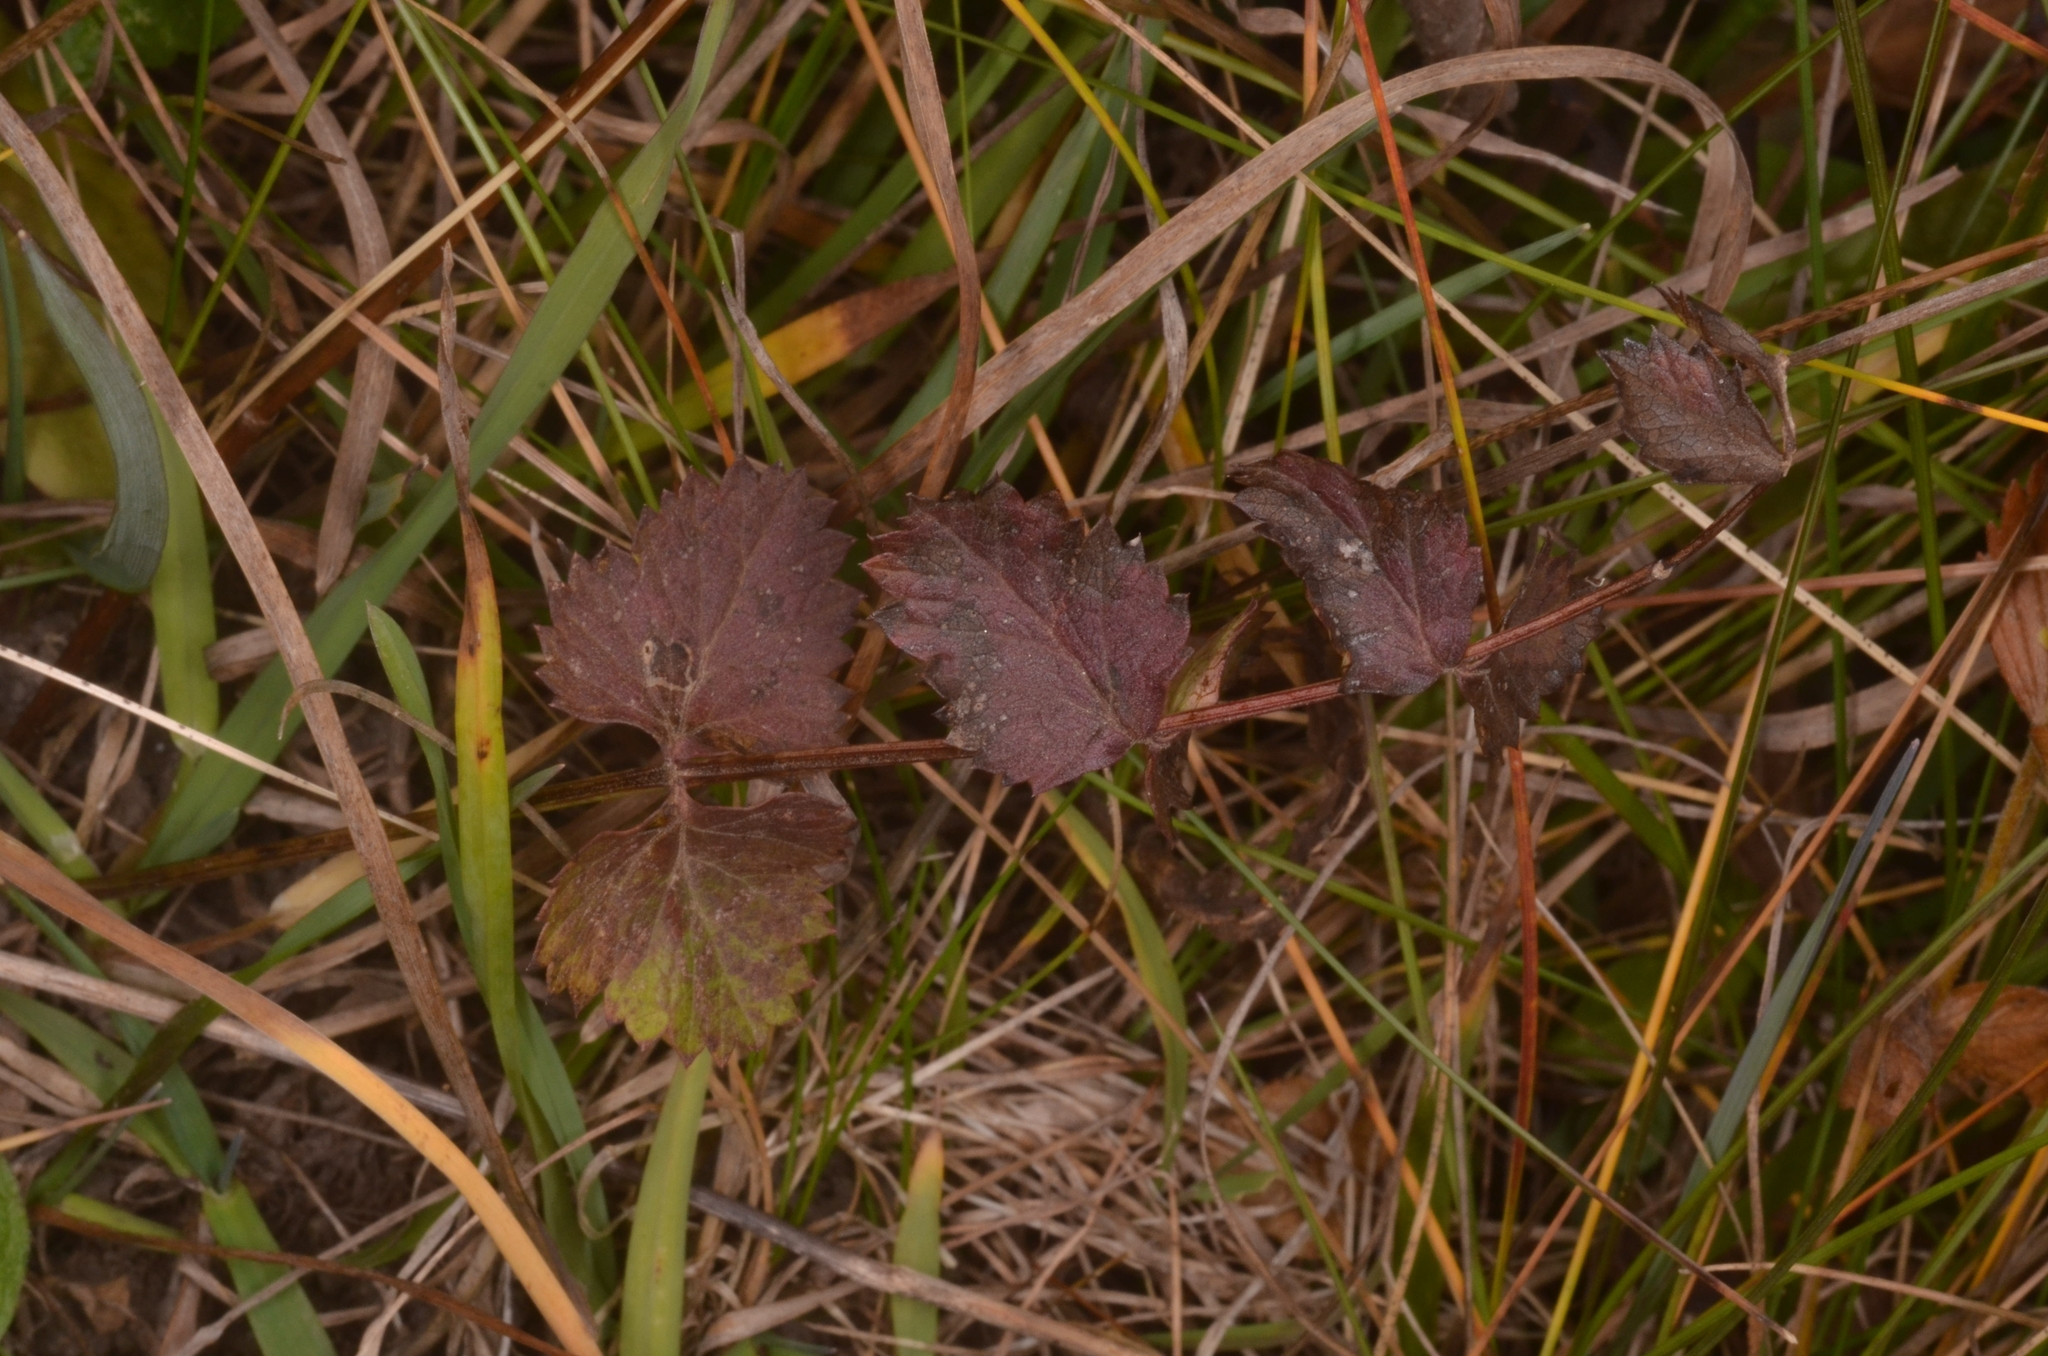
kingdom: Plantae
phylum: Tracheophyta
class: Magnoliopsida
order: Apiales
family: Apiaceae
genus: Pimpinella
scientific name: Pimpinella saxifraga
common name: Burnet-saxifrage
